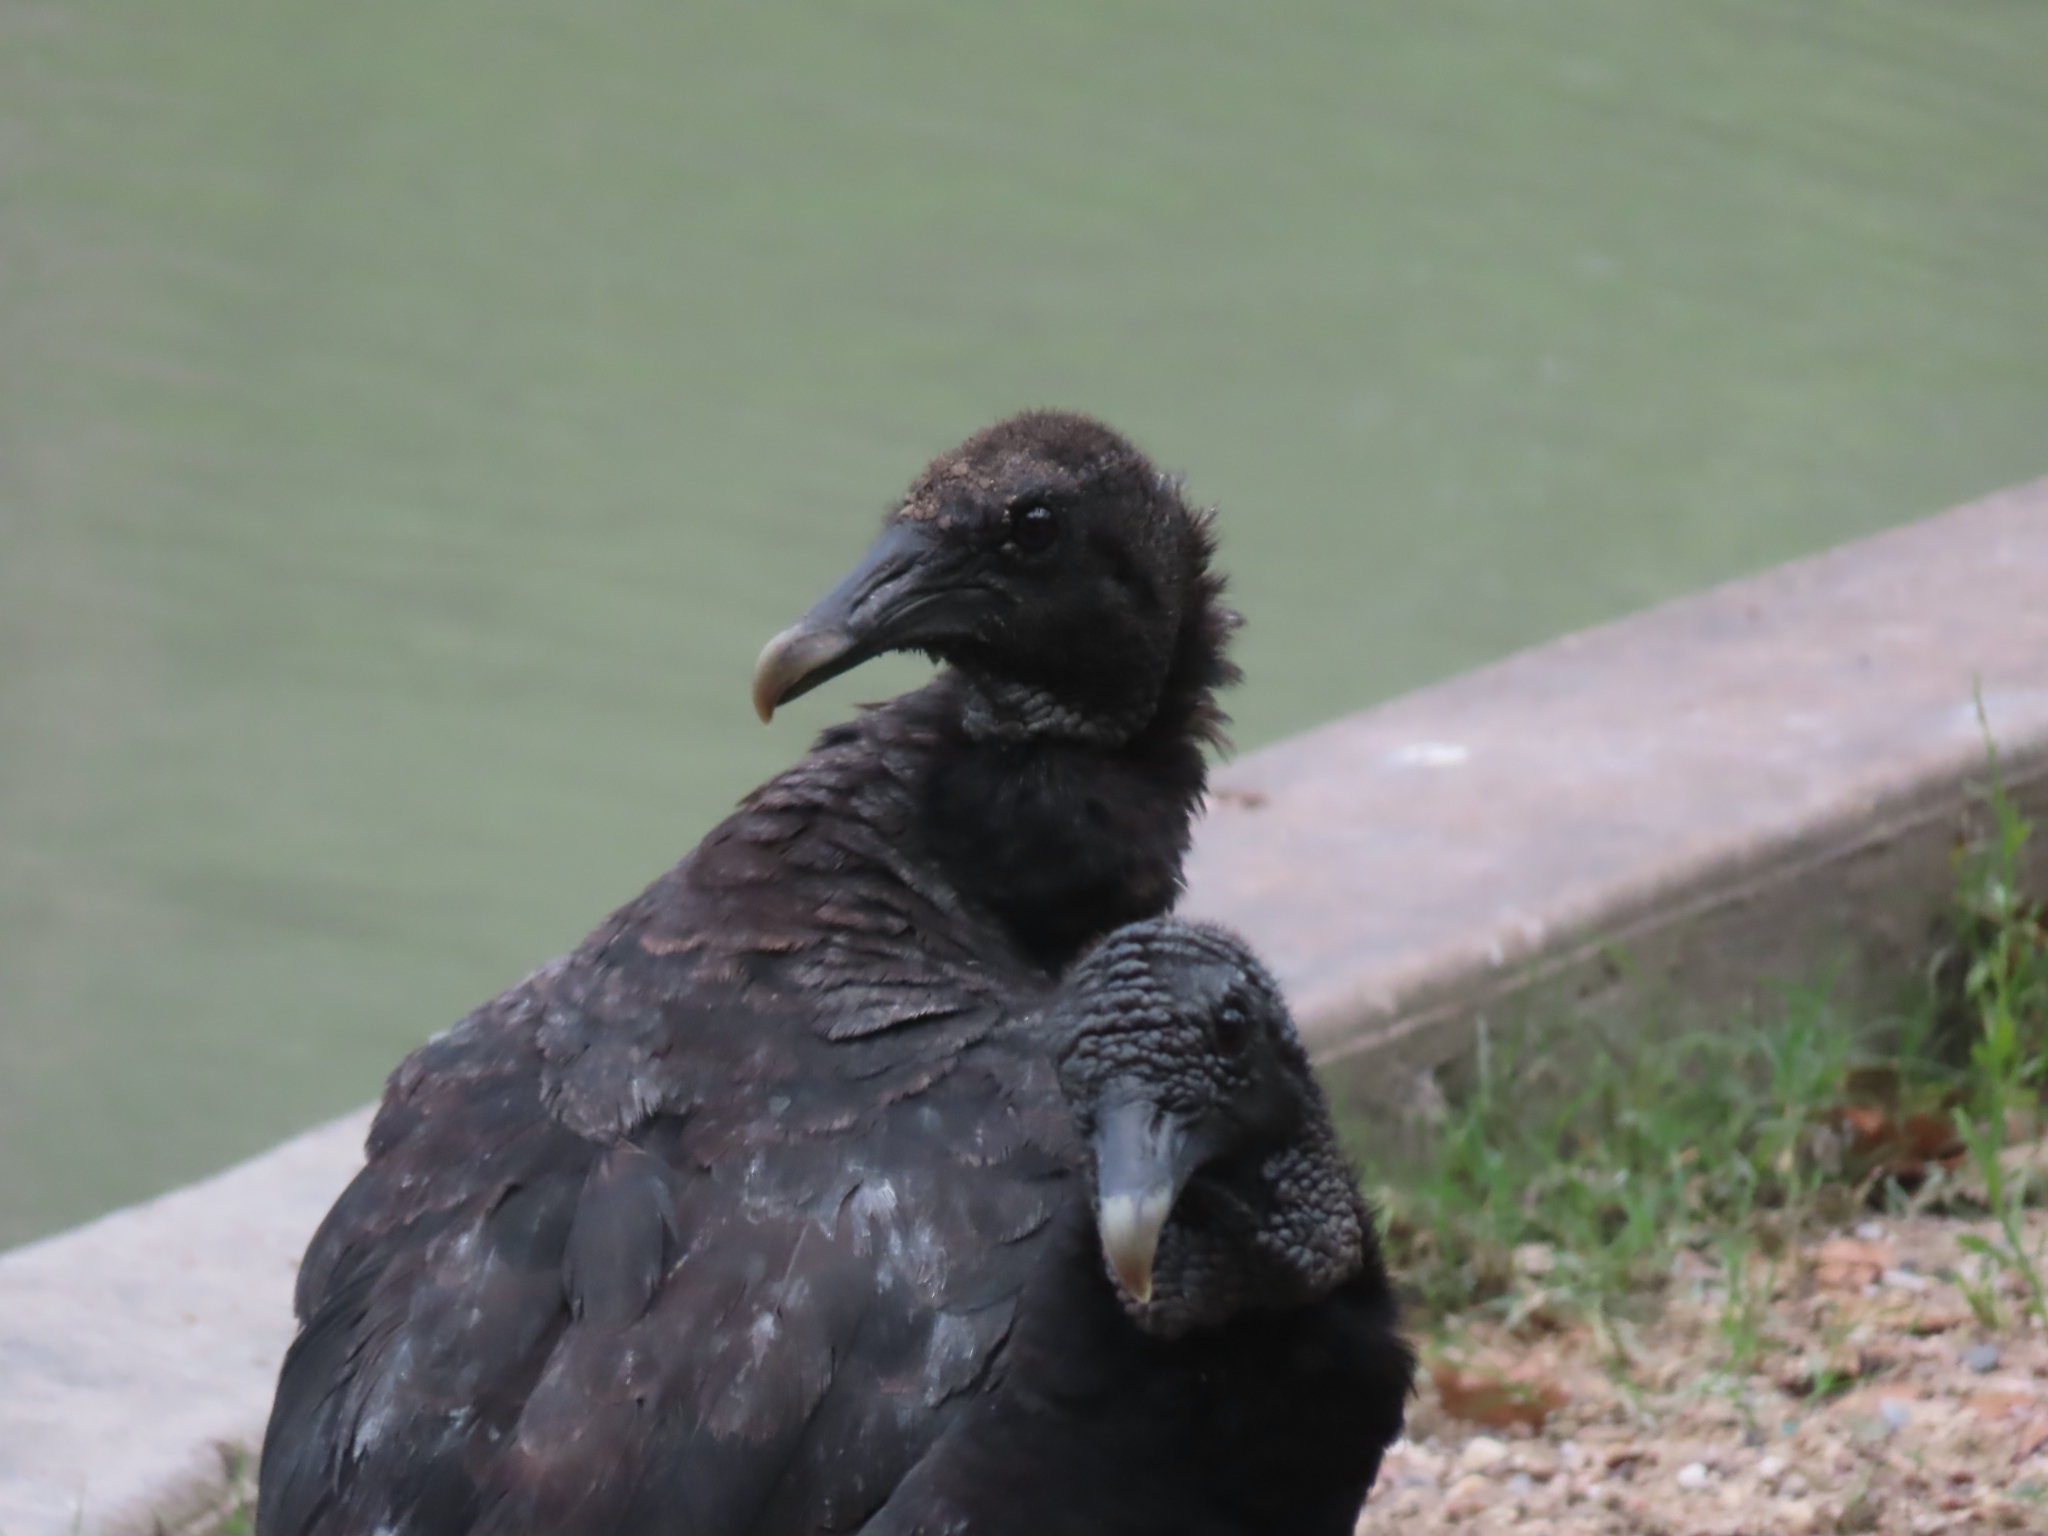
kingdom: Animalia
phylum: Chordata
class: Aves
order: Accipitriformes
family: Cathartidae
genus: Coragyps
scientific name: Coragyps atratus
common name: Black vulture
